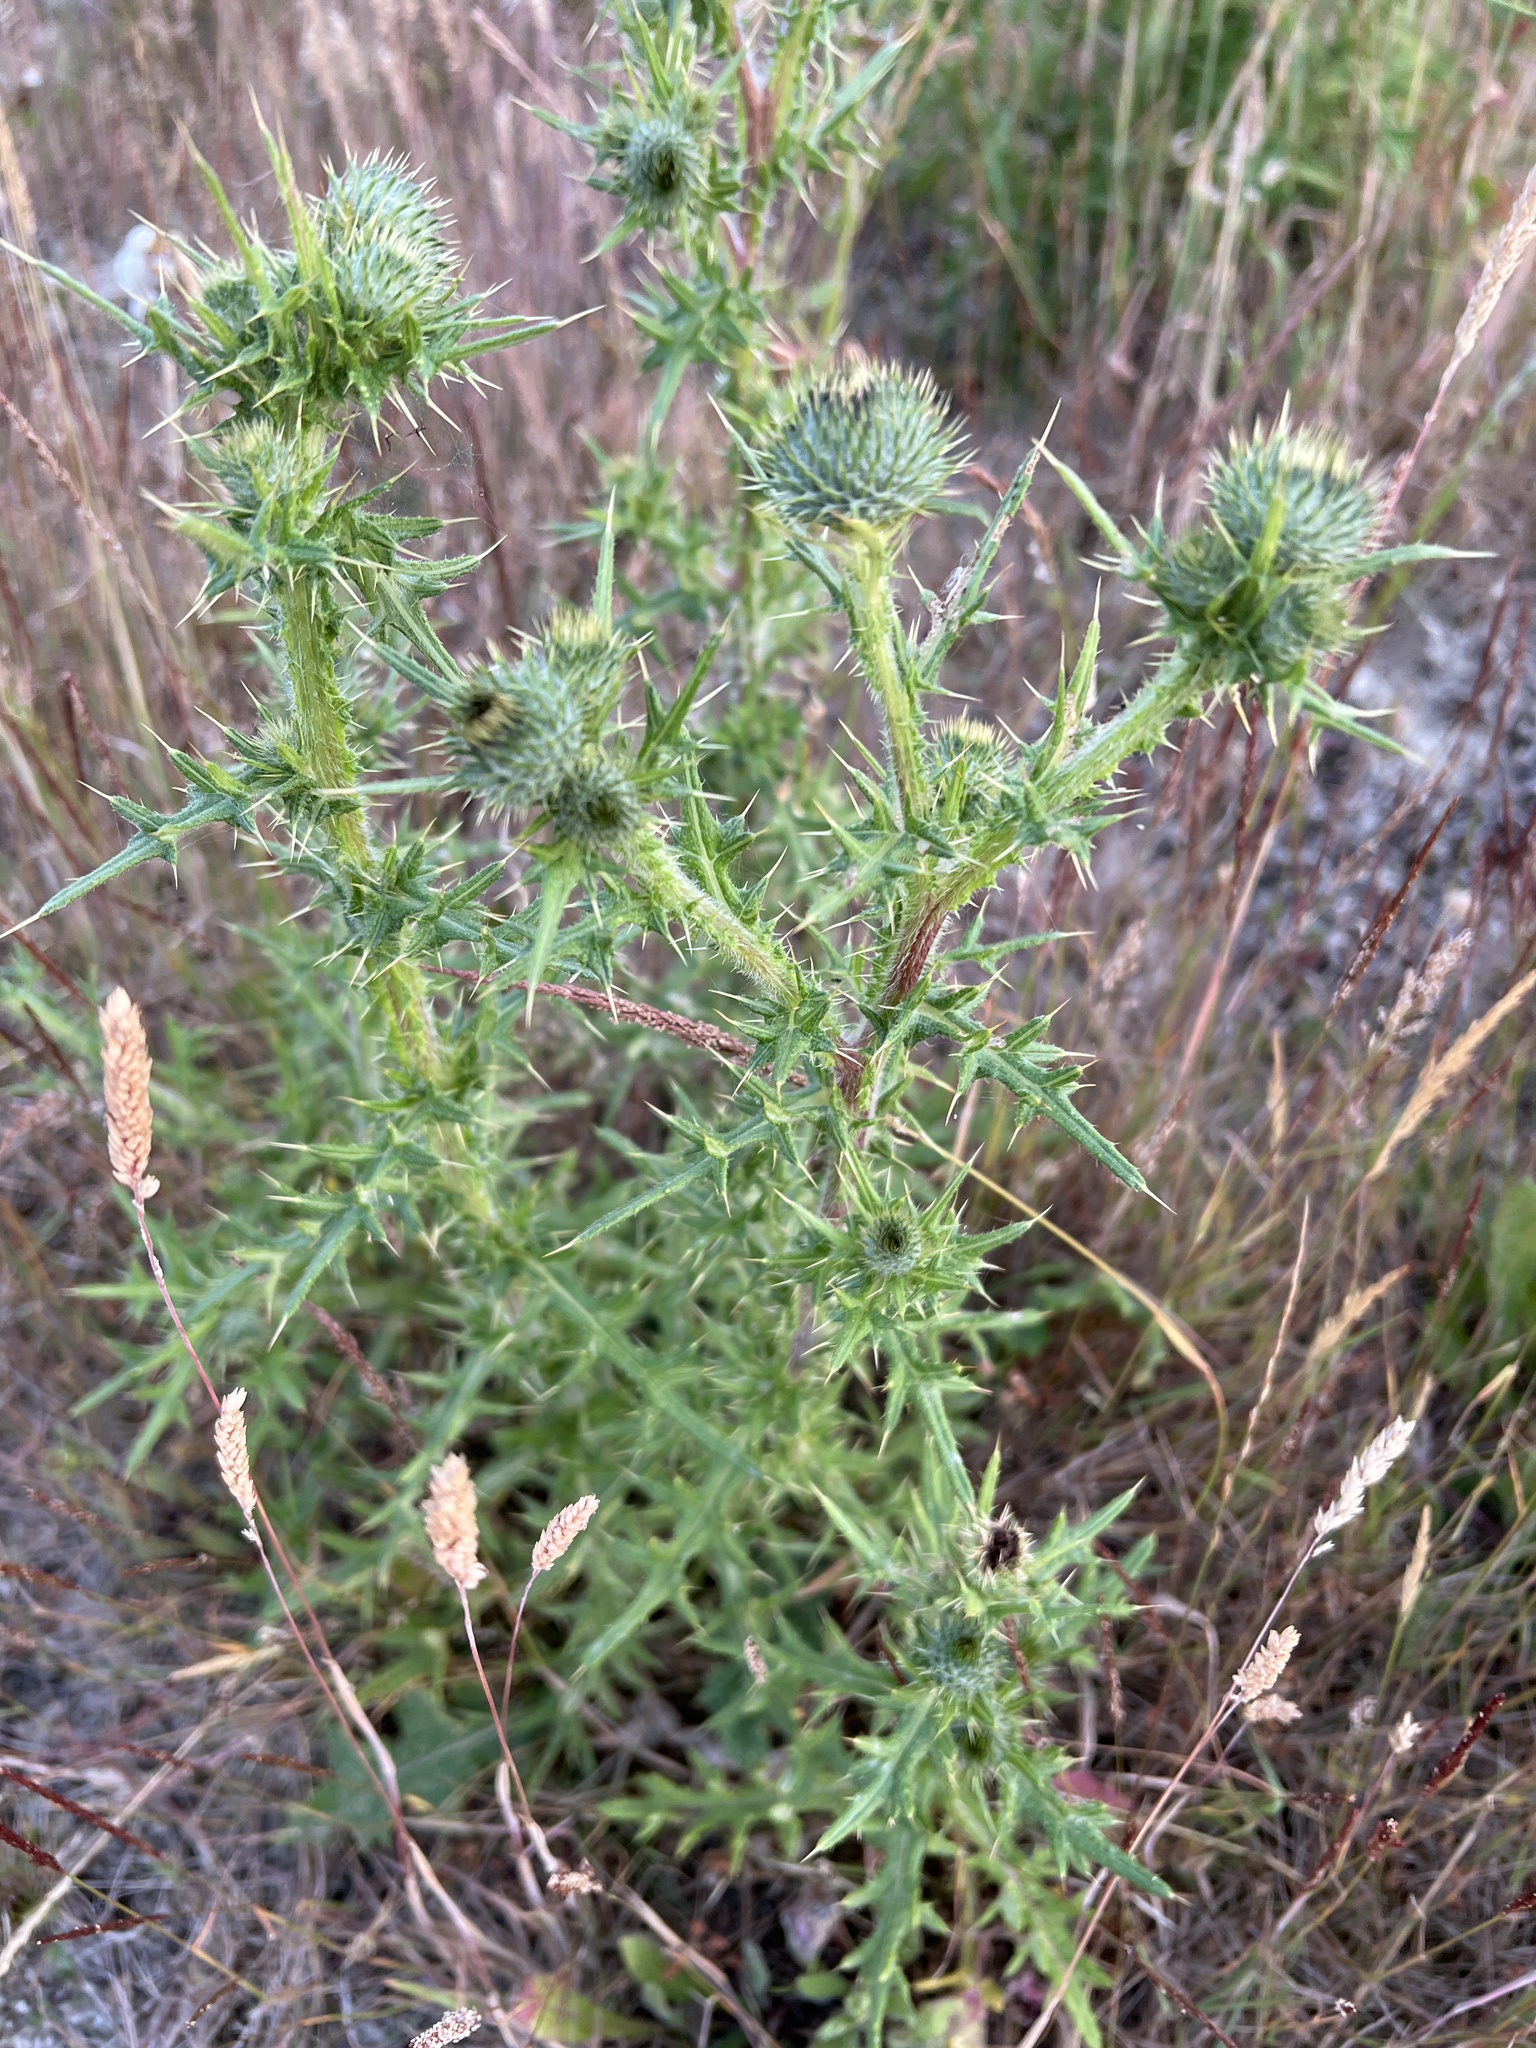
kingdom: Plantae
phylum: Tracheophyta
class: Magnoliopsida
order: Asterales
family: Asteraceae
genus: Cirsium
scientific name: Cirsium vulgare
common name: Bull thistle
